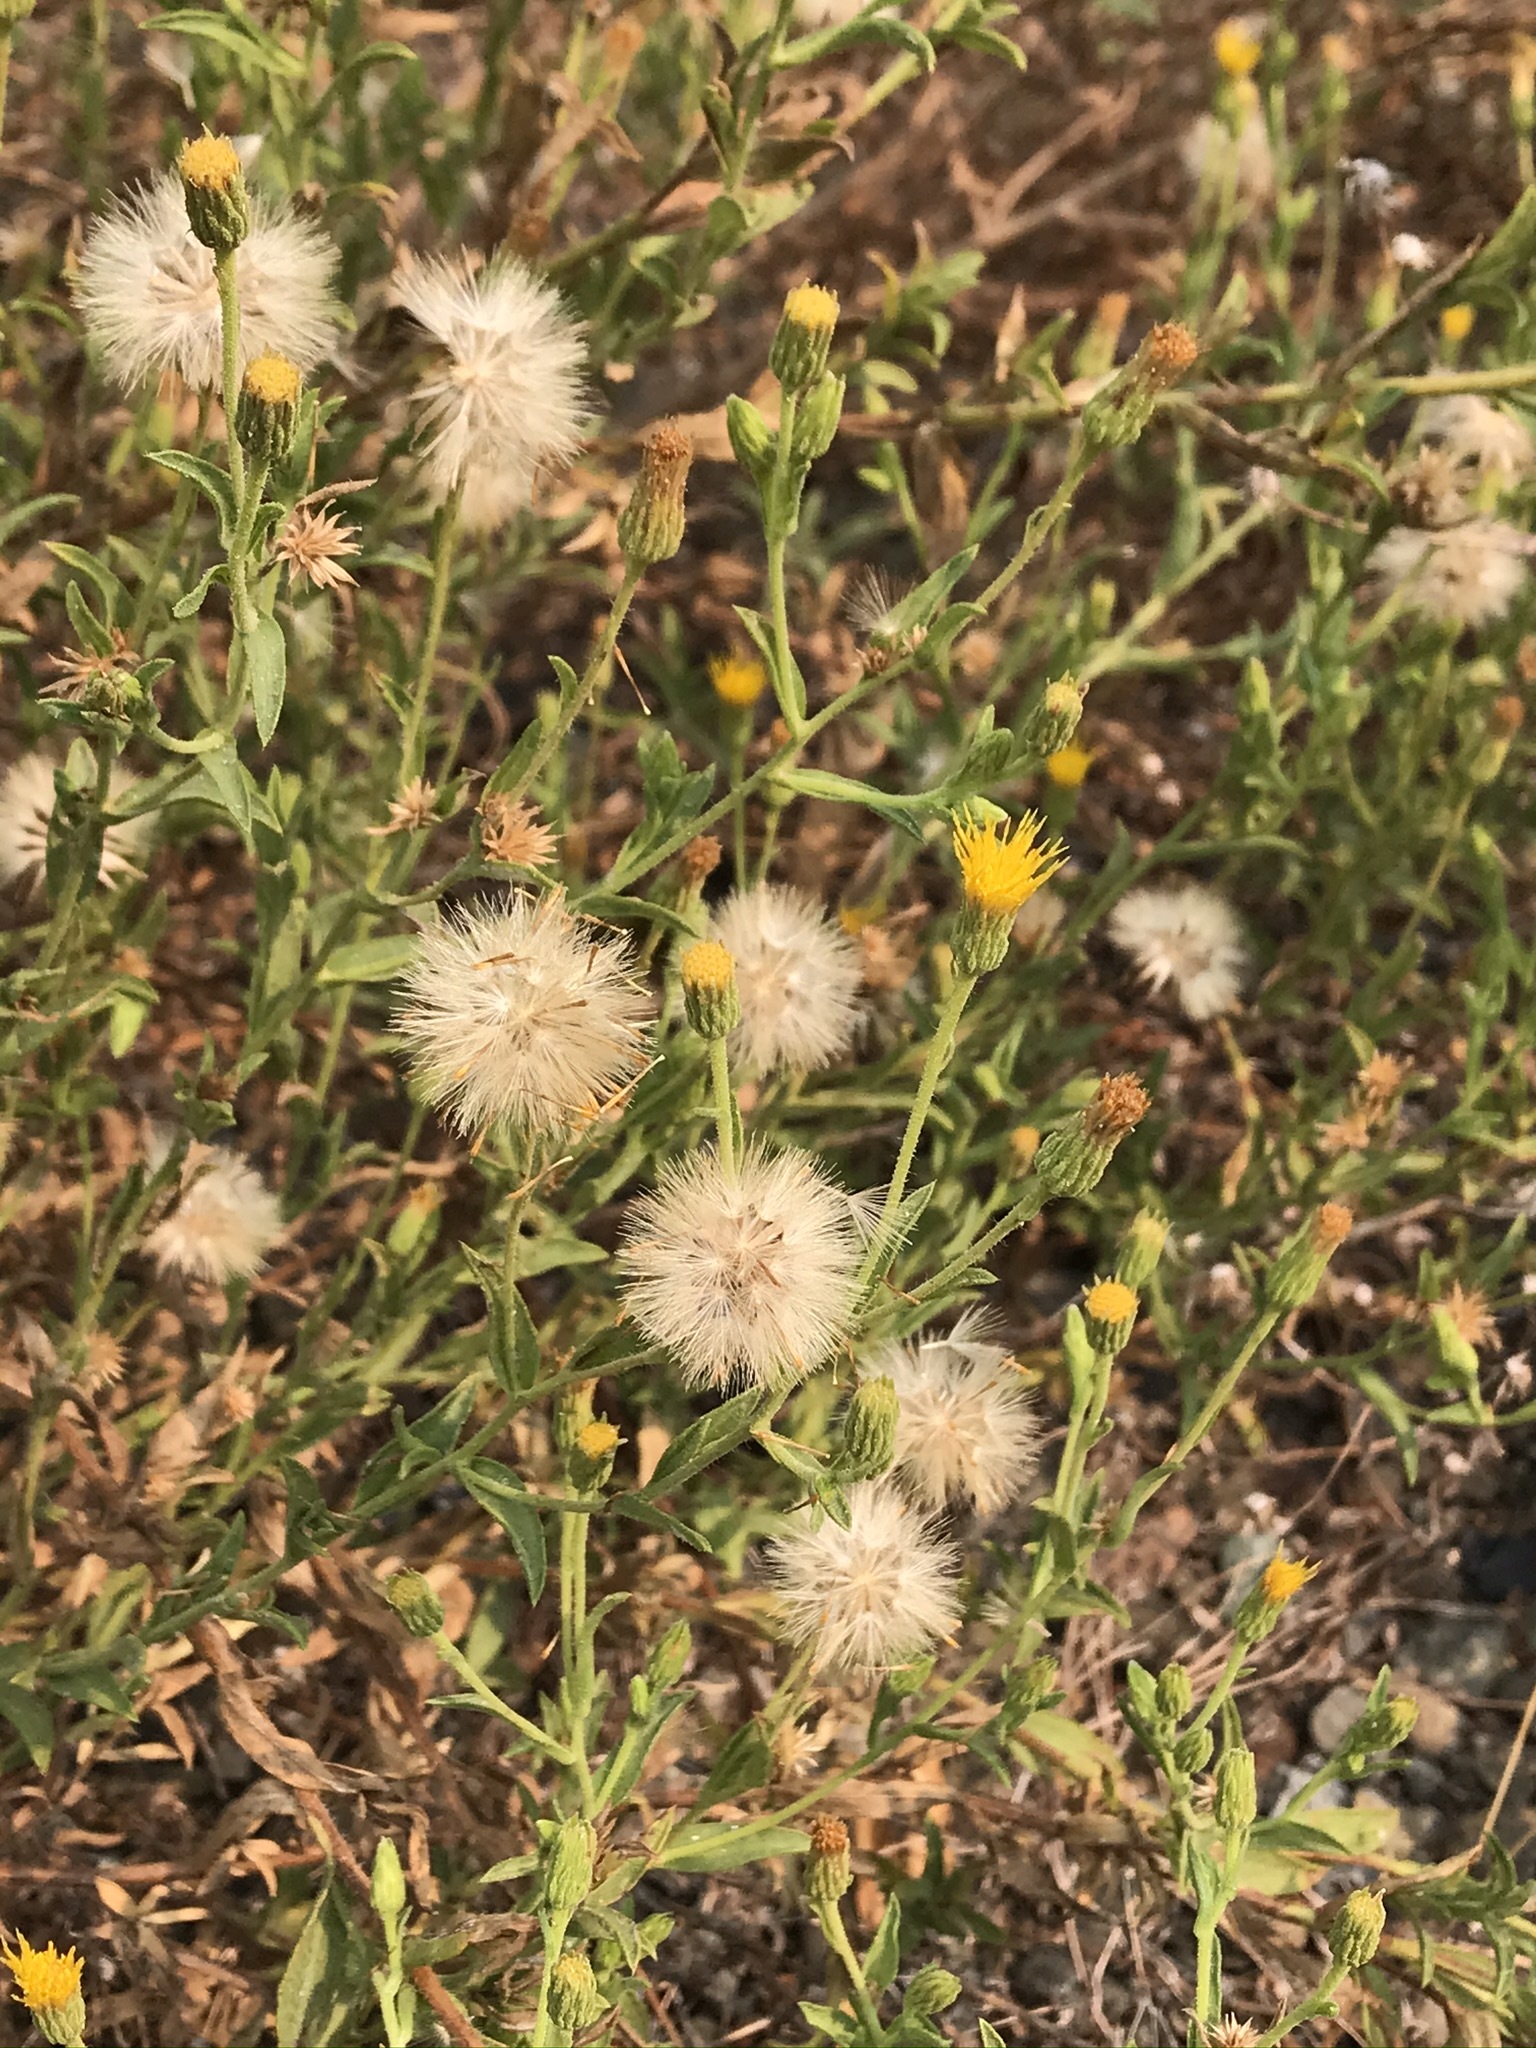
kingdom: Plantae
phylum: Tracheophyta
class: Magnoliopsida
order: Asterales
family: Asteraceae
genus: Heterotheca
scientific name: Heterotheca oregona
